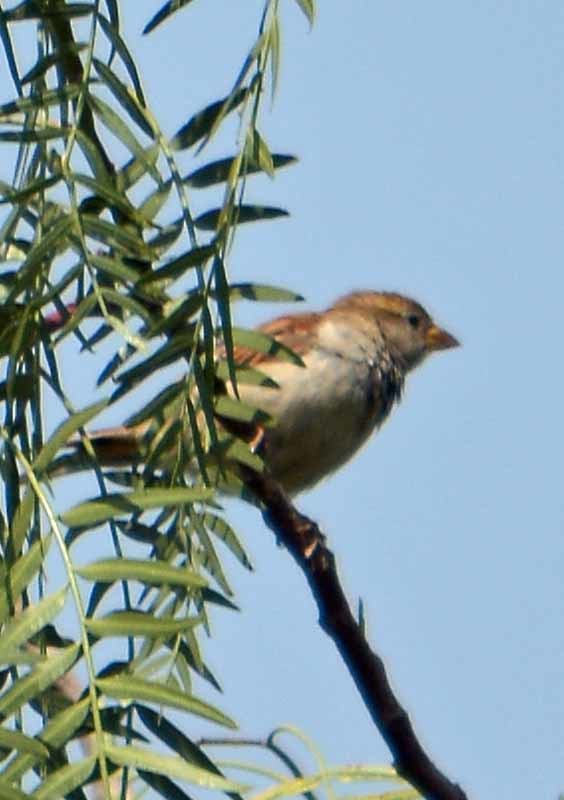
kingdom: Animalia
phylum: Chordata
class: Aves
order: Passeriformes
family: Passeridae
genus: Passer
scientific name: Passer domesticus
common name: House sparrow
